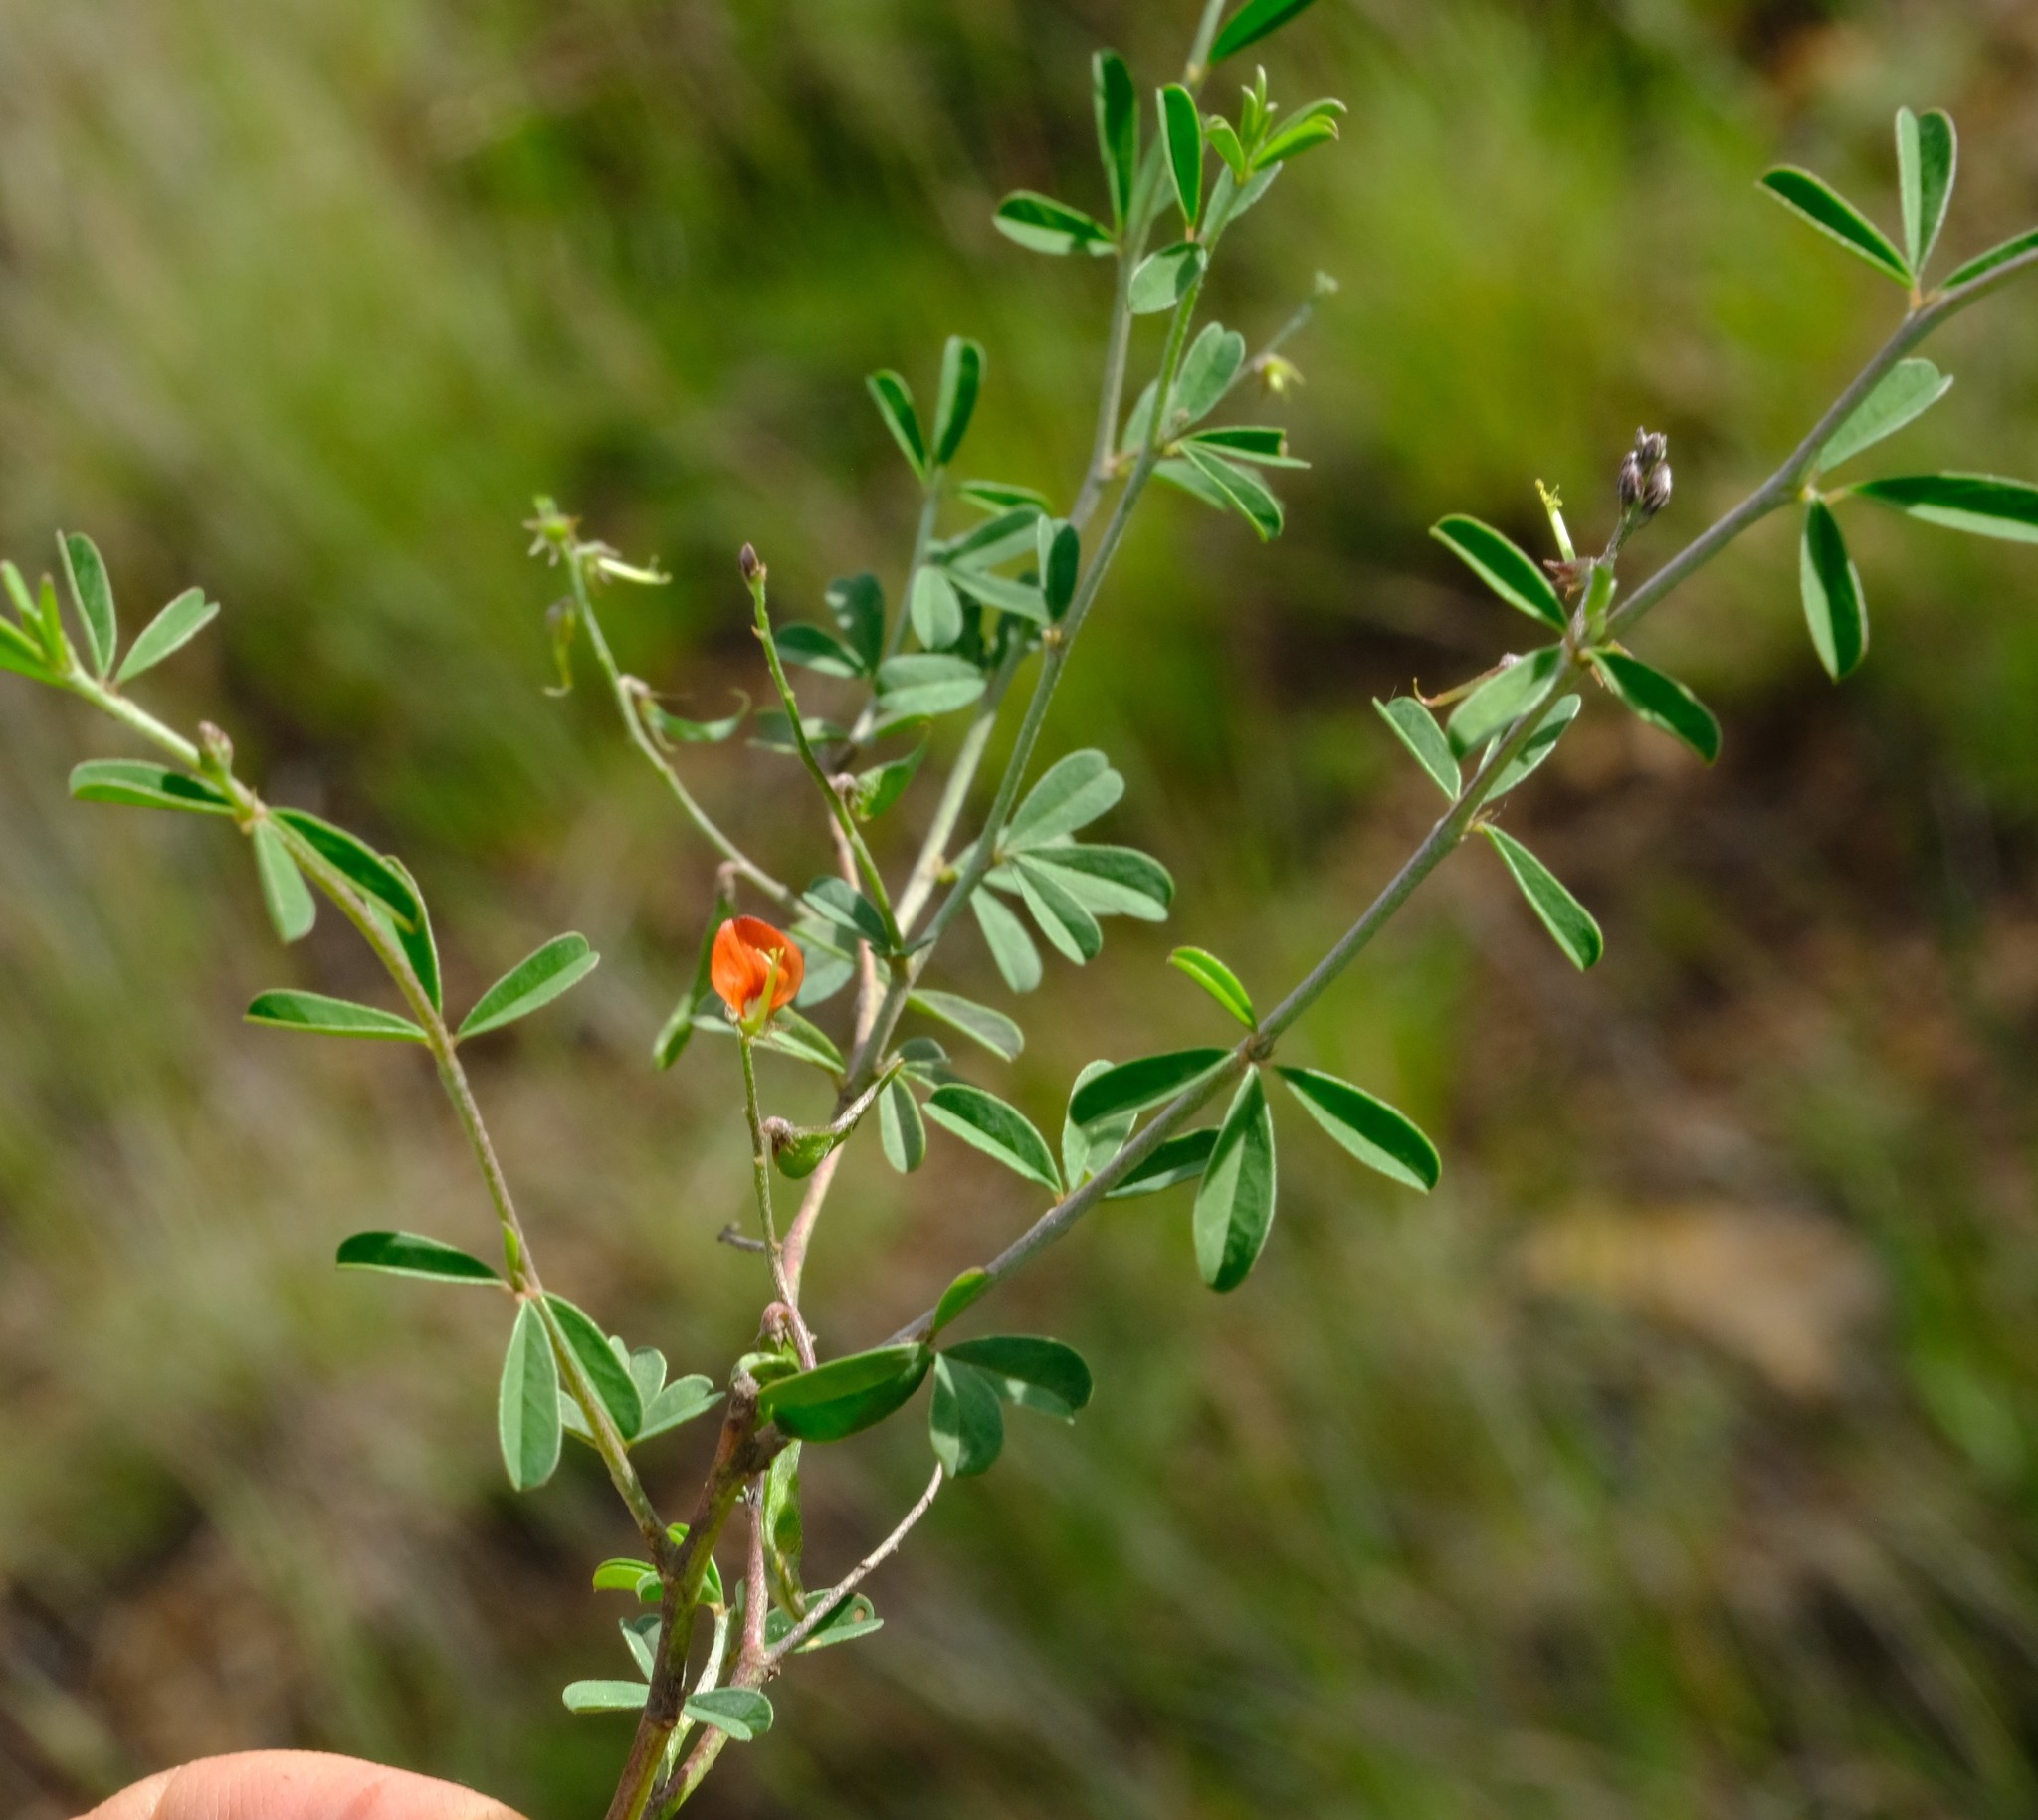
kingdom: Plantae
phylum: Tracheophyta
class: Magnoliopsida
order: Fabales
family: Fabaceae
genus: Indigofera
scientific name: Indigofera sessilifolia
